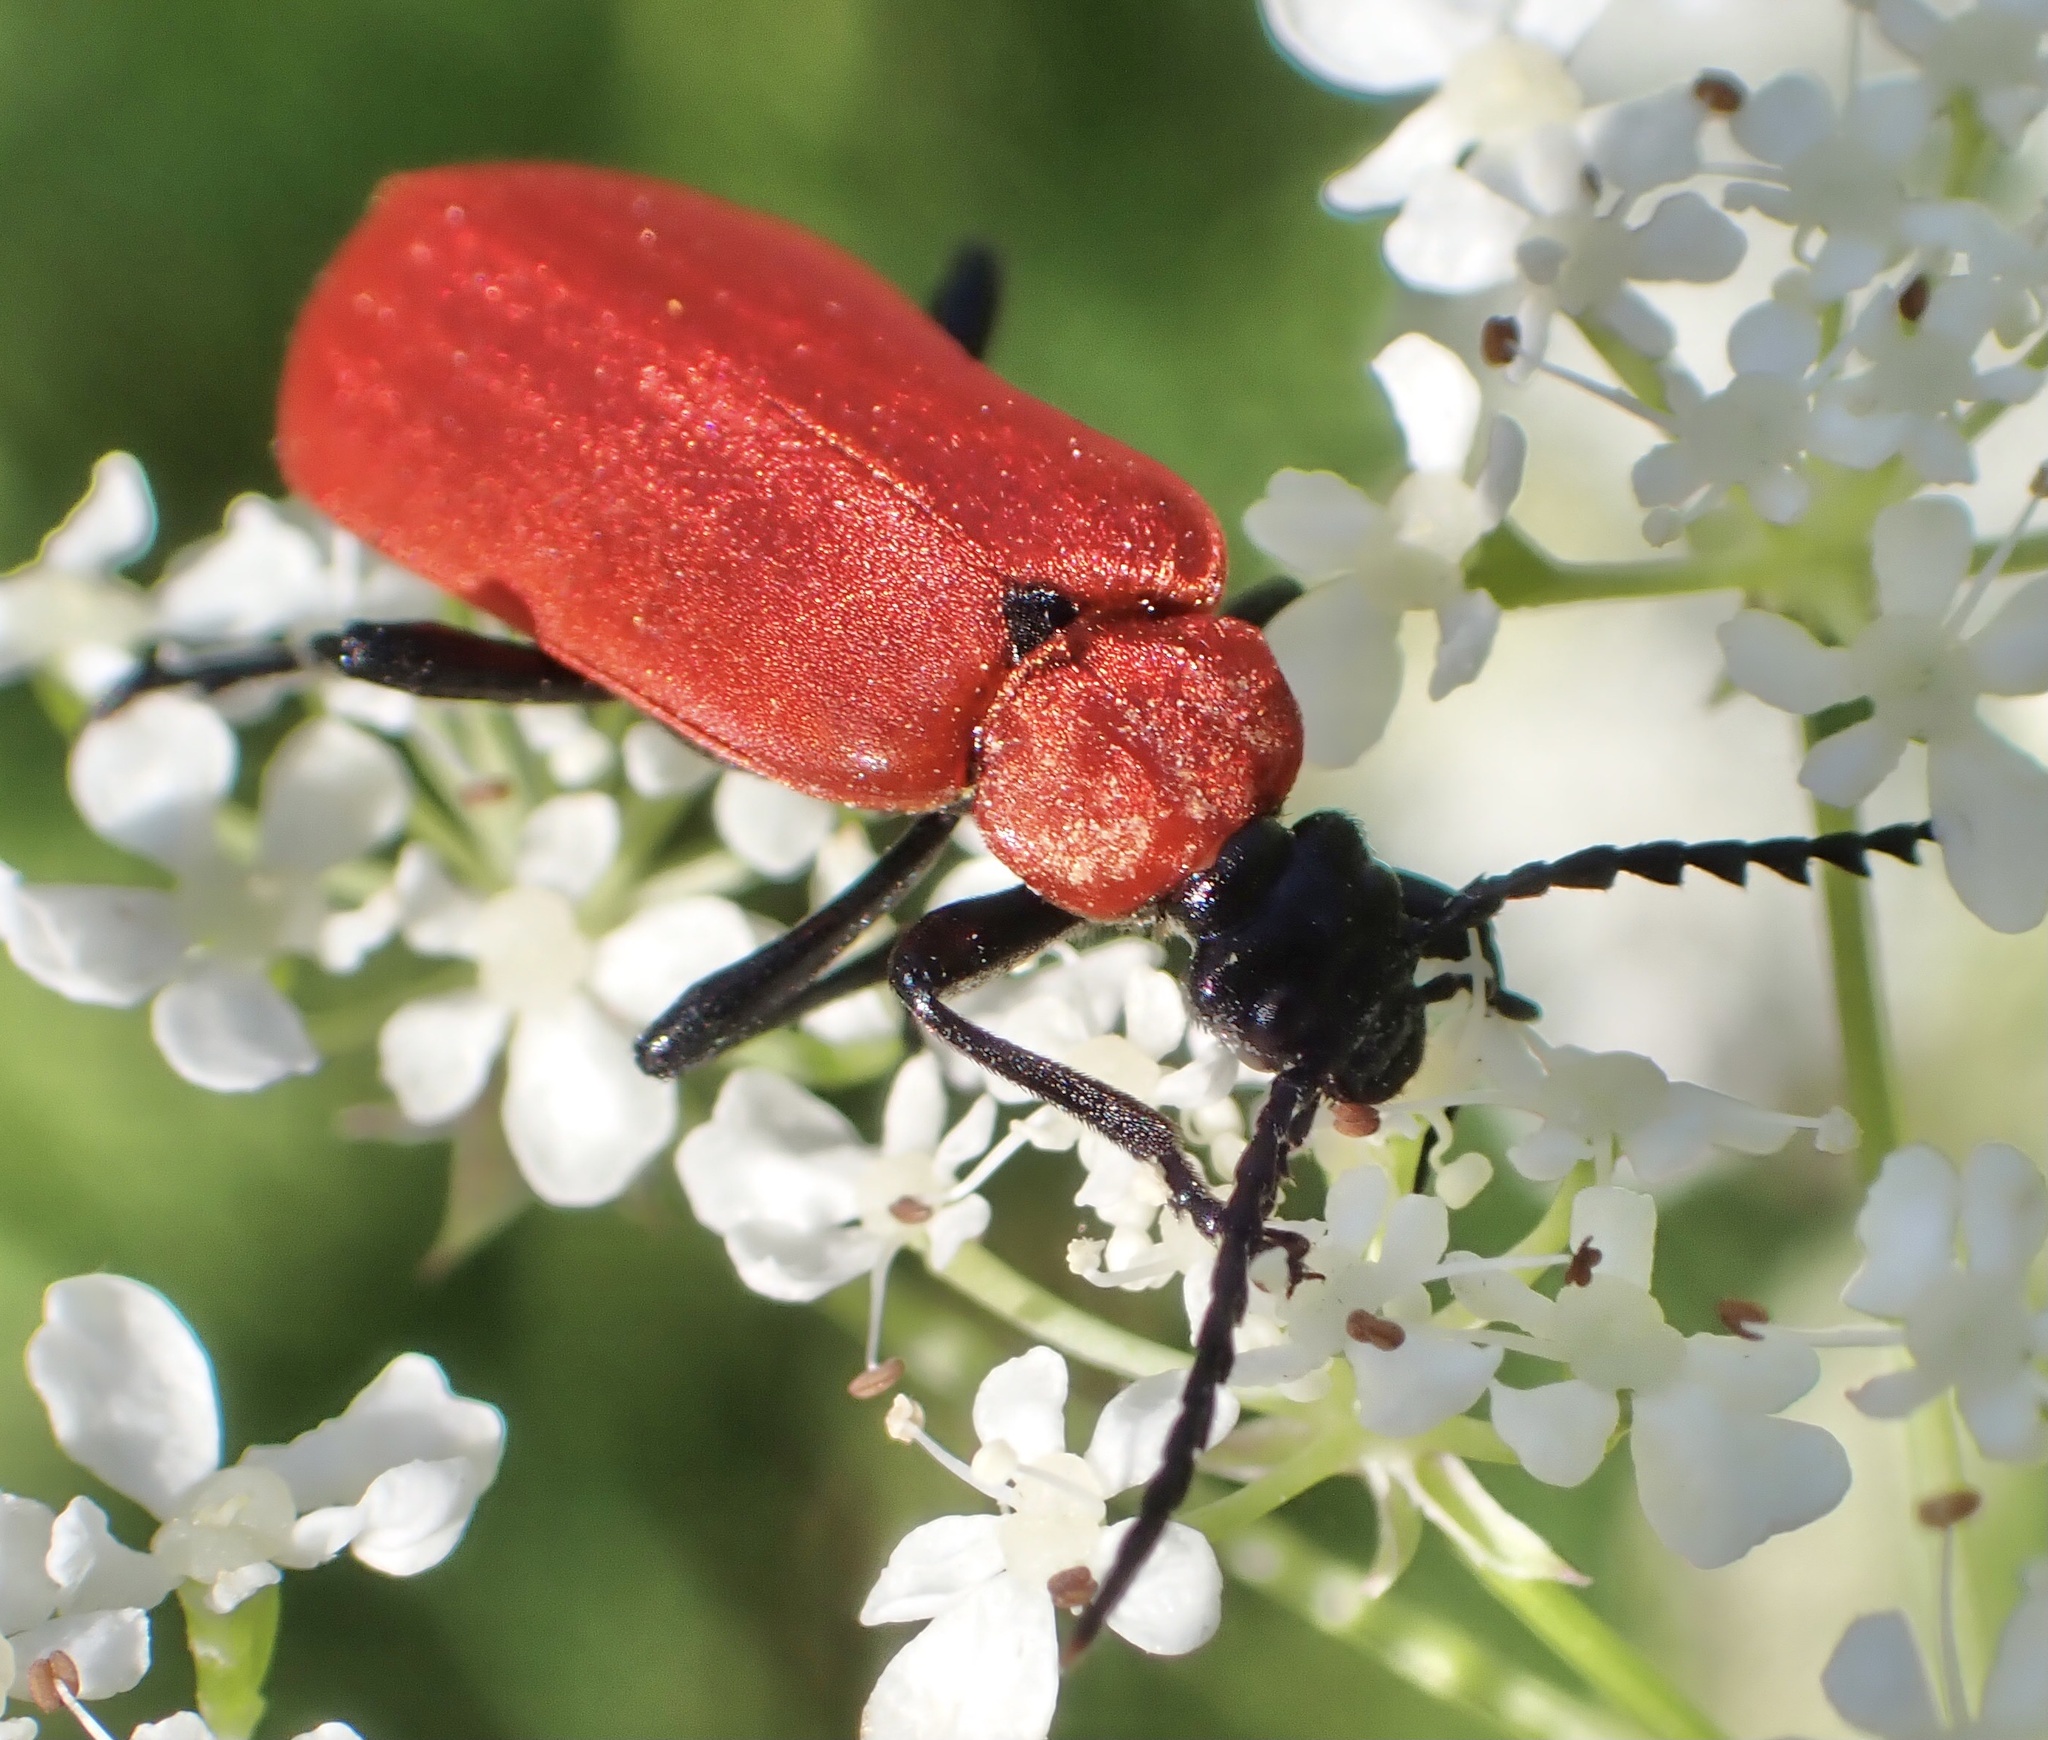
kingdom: Animalia
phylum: Arthropoda
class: Insecta
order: Coleoptera
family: Pyrochroidae
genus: Pyrochroa
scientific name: Pyrochroa coccinea
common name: Black-headed cardinal beetle
